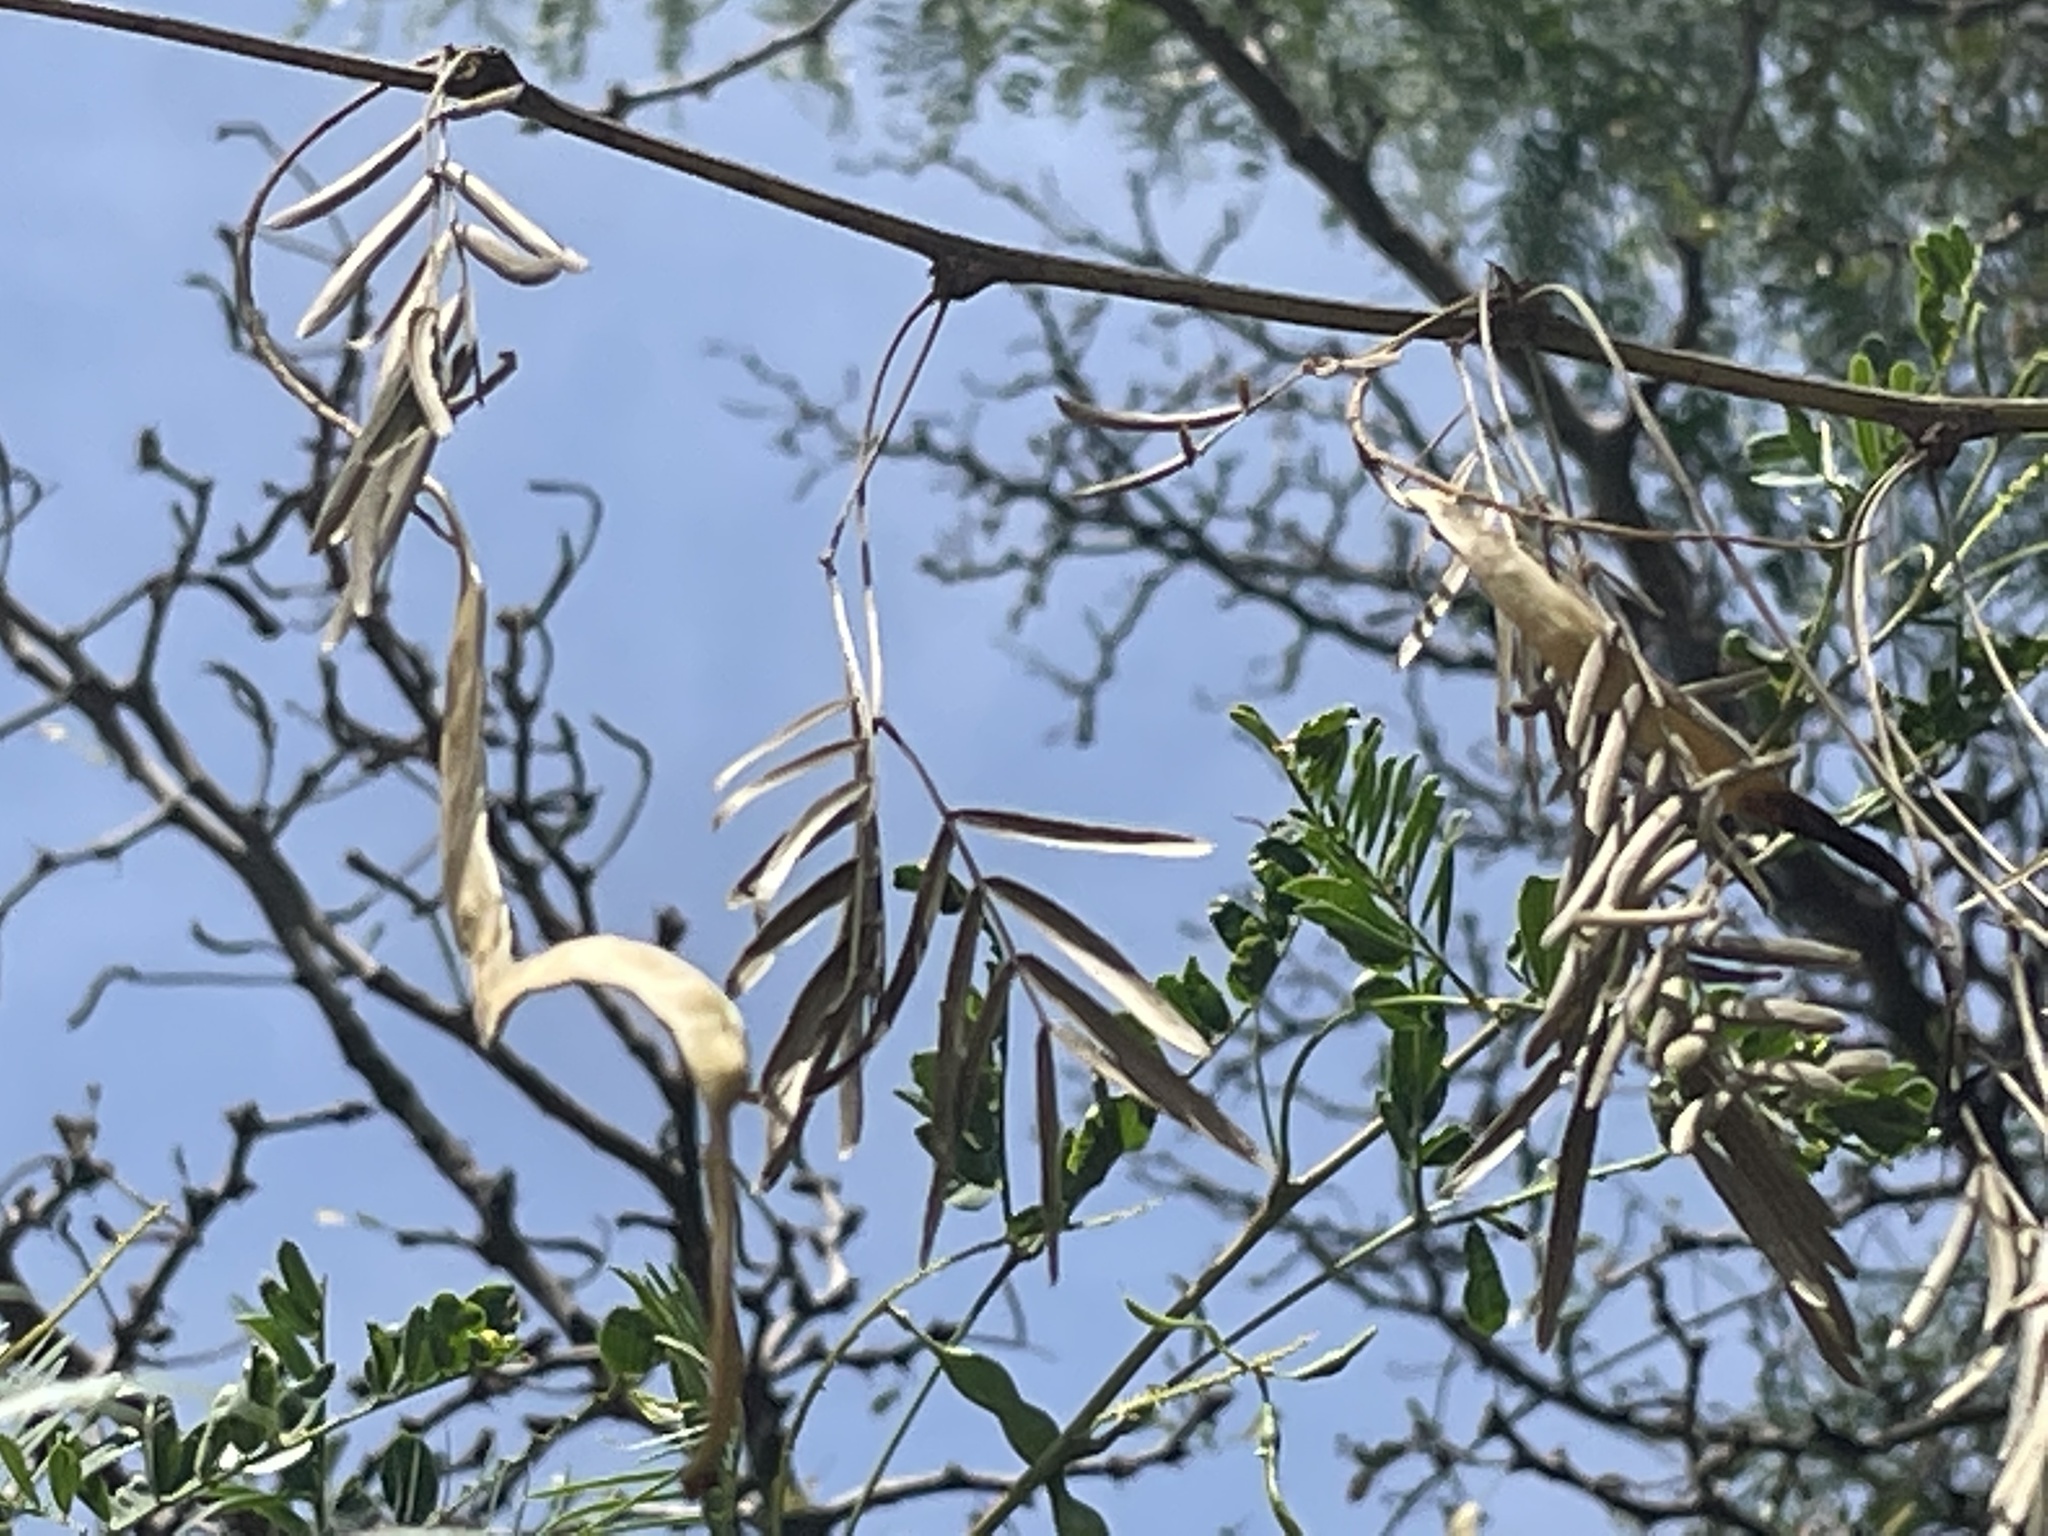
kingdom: Plantae
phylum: Tracheophyta
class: Magnoliopsida
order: Fabales
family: Fabaceae
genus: Prosopis
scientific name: Prosopis glandulosa
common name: Honey mesquite
